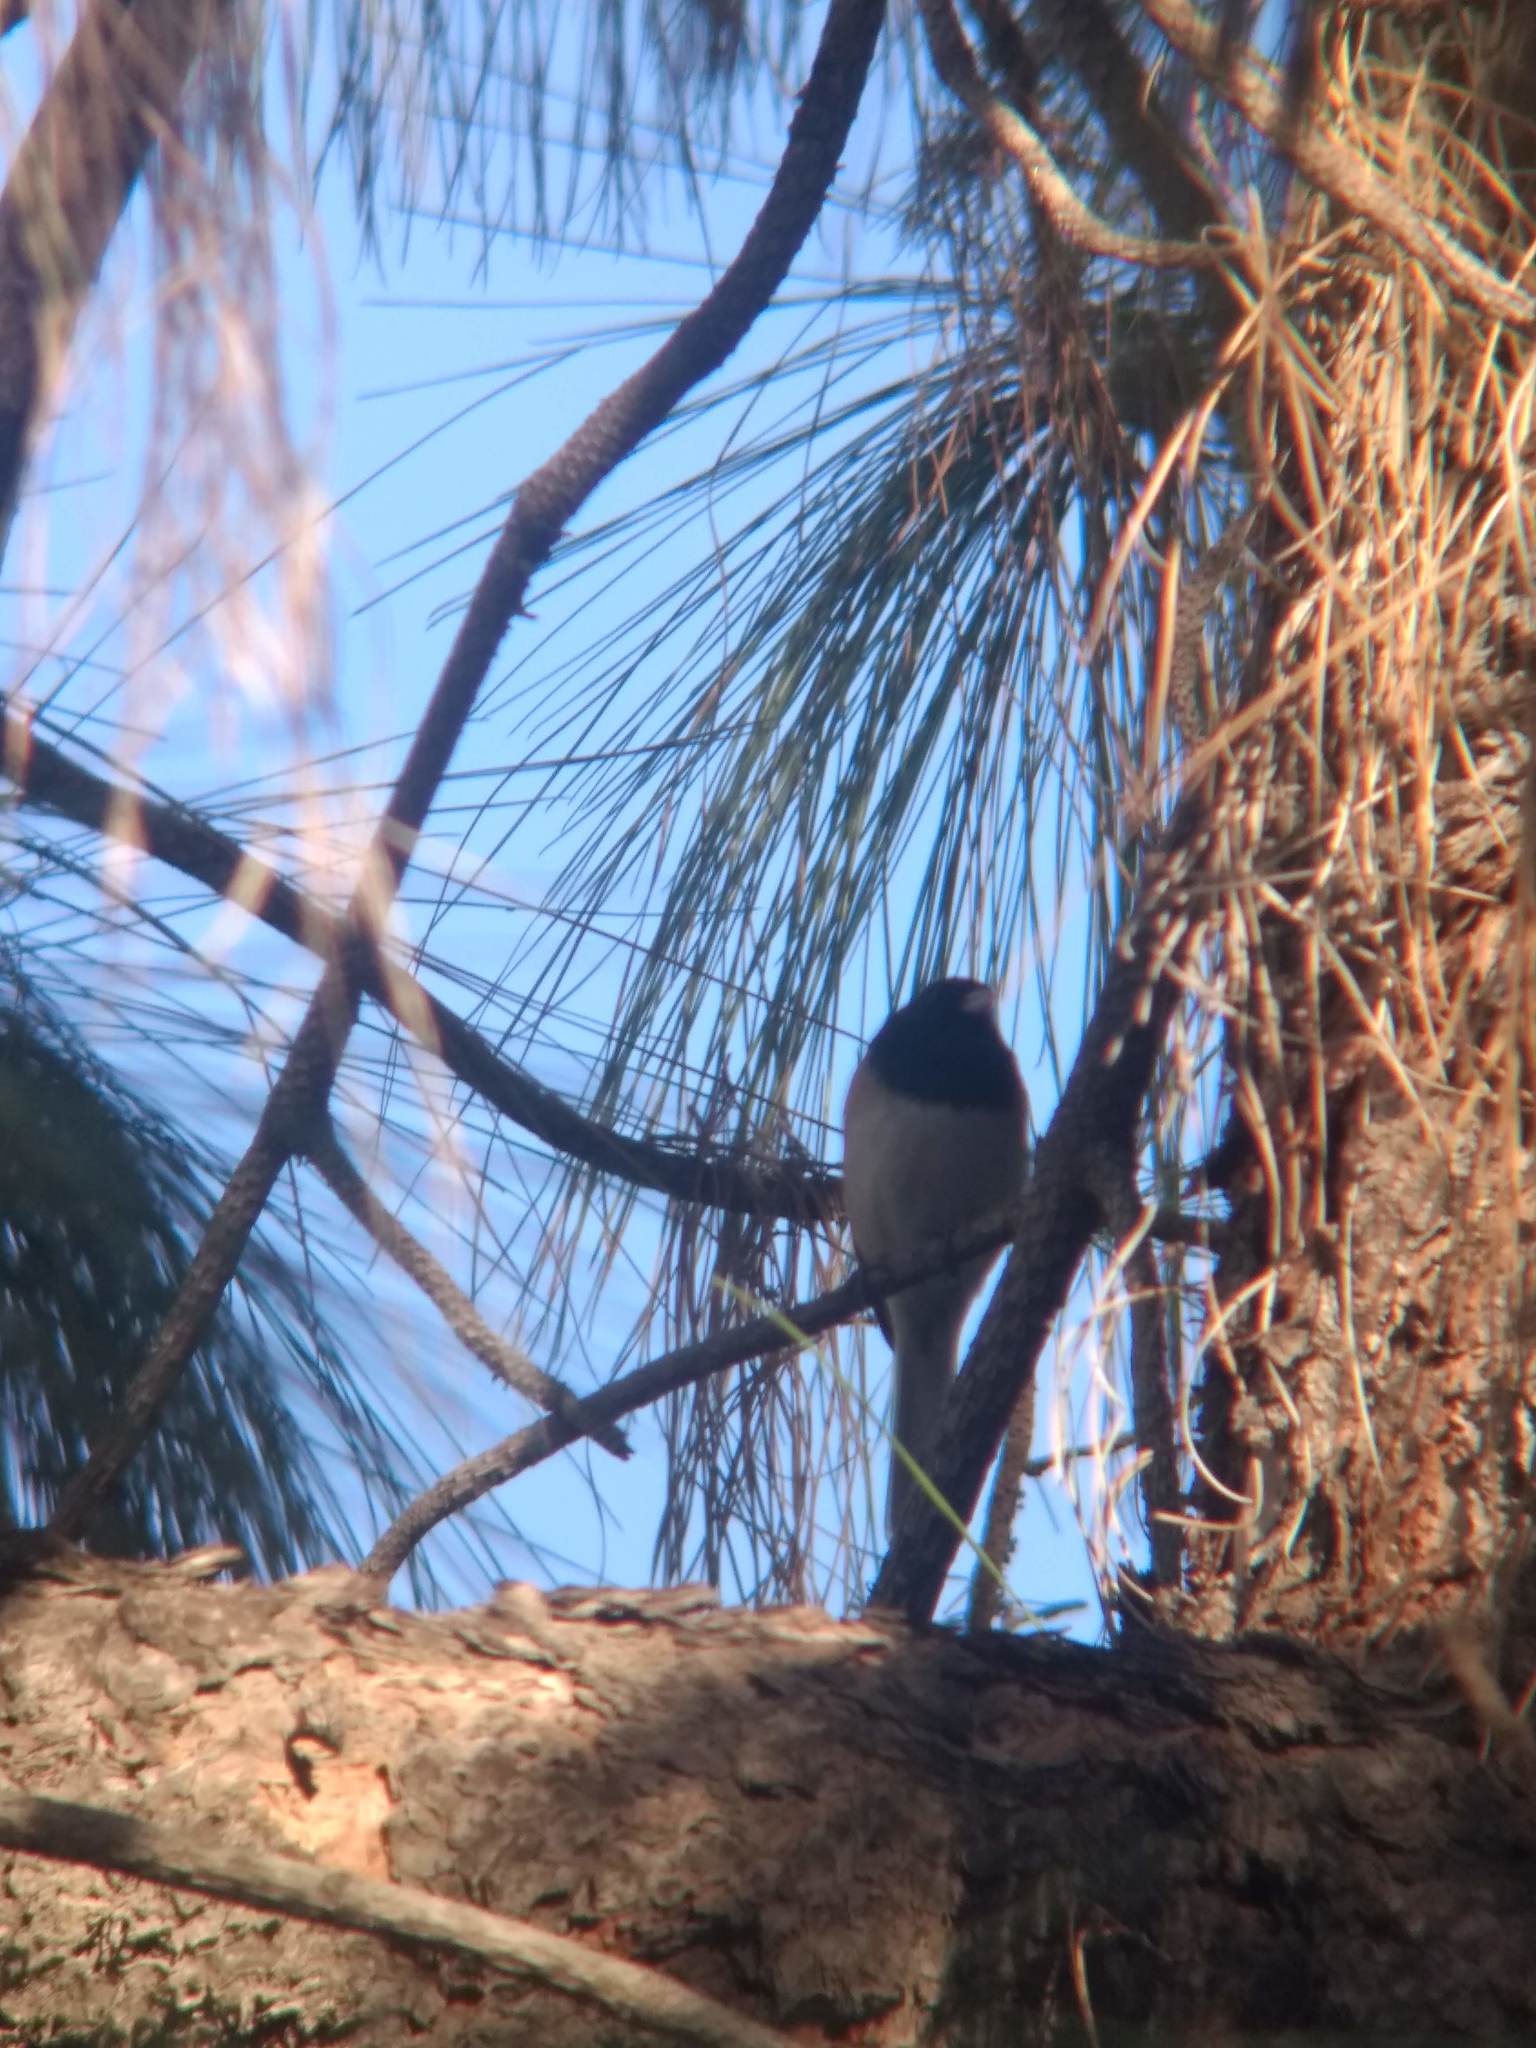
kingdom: Animalia
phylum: Chordata
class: Aves
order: Passeriformes
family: Passerellidae
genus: Junco
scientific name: Junco hyemalis
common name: Dark-eyed junco
